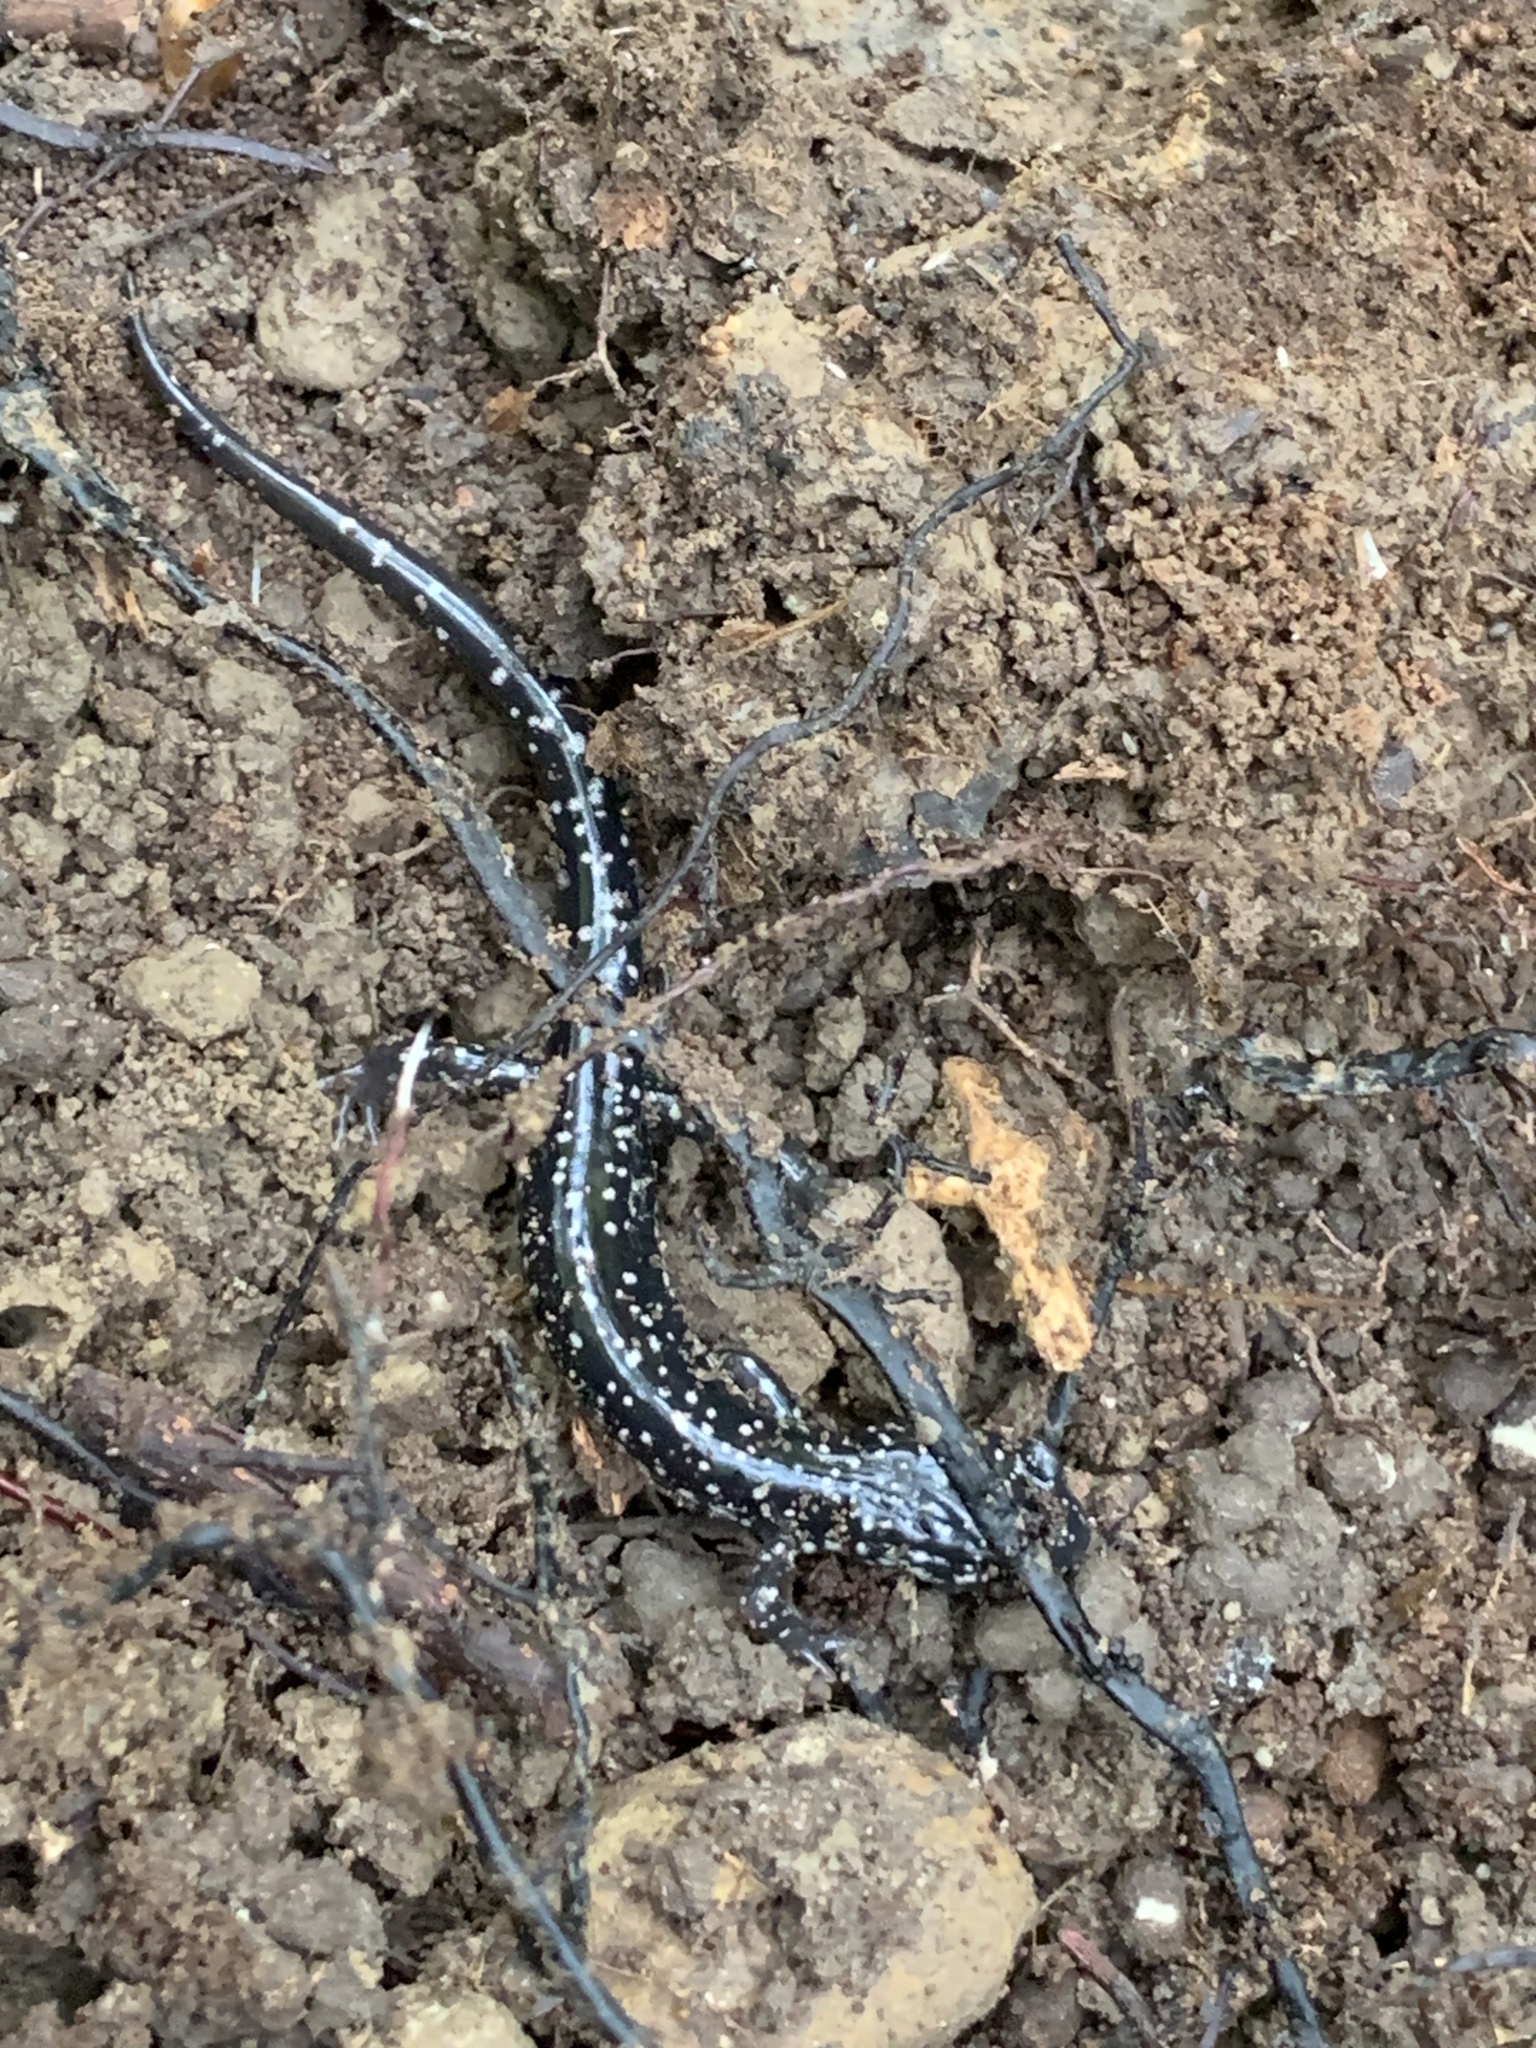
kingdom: Animalia
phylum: Chordata
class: Amphibia
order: Caudata
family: Plethodontidae
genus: Plethodon
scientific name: Plethodon glutinosus
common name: Northern slimy salamander
